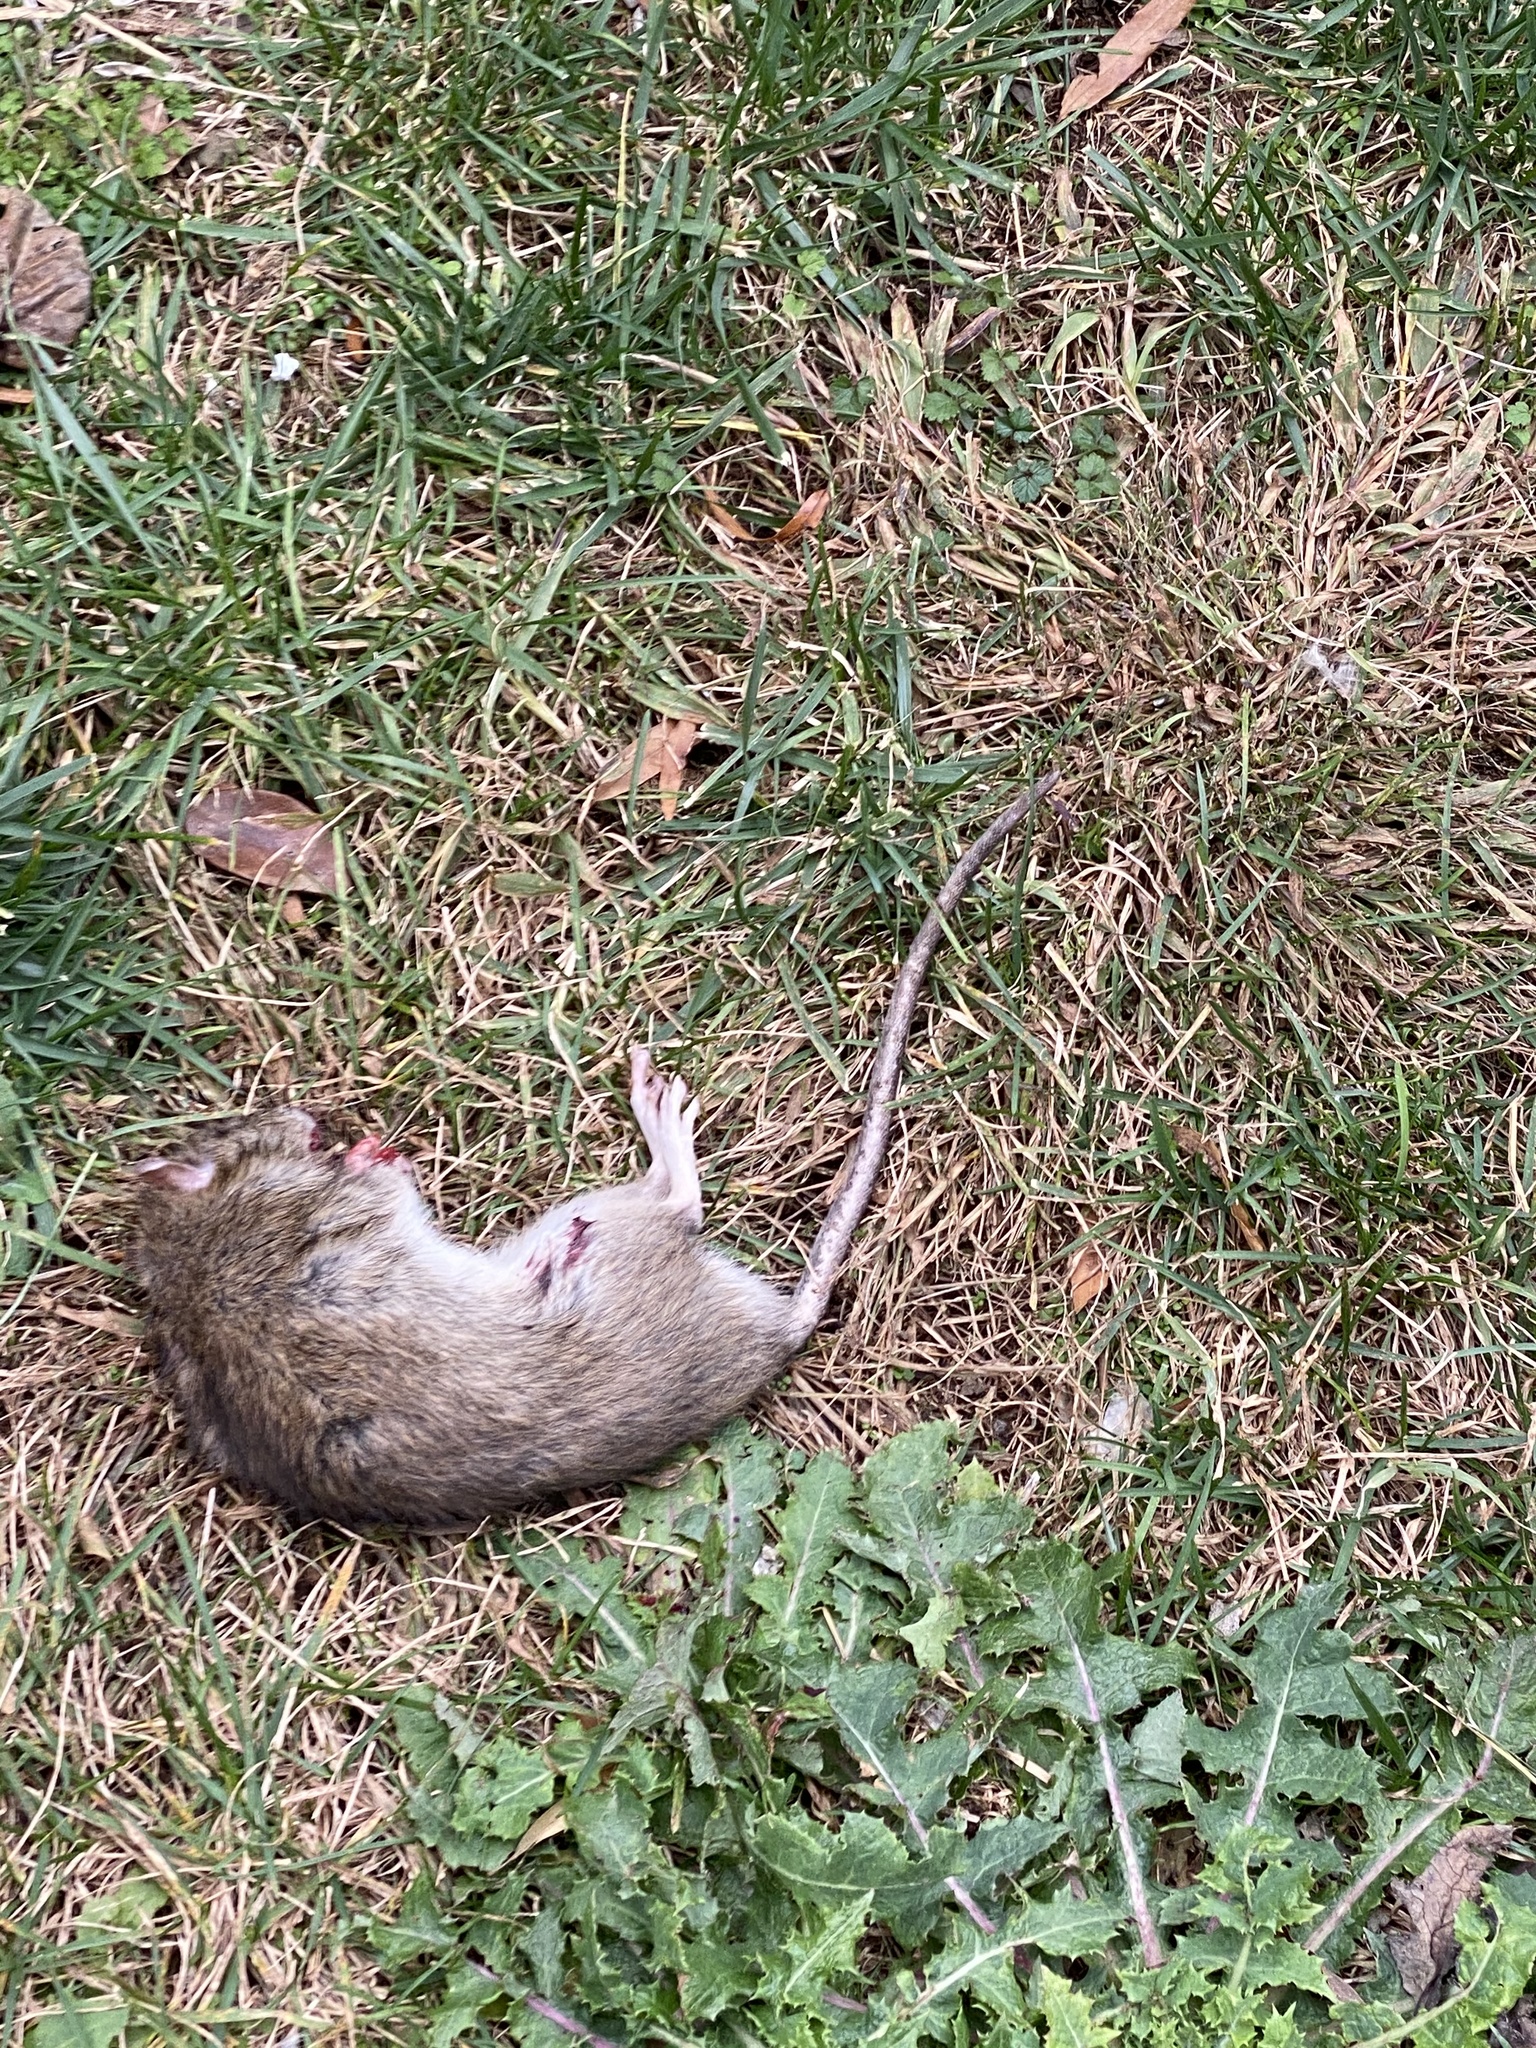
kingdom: Animalia
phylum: Chordata
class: Mammalia
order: Rodentia
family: Muridae
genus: Rattus
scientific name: Rattus norvegicus
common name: Brown rat
